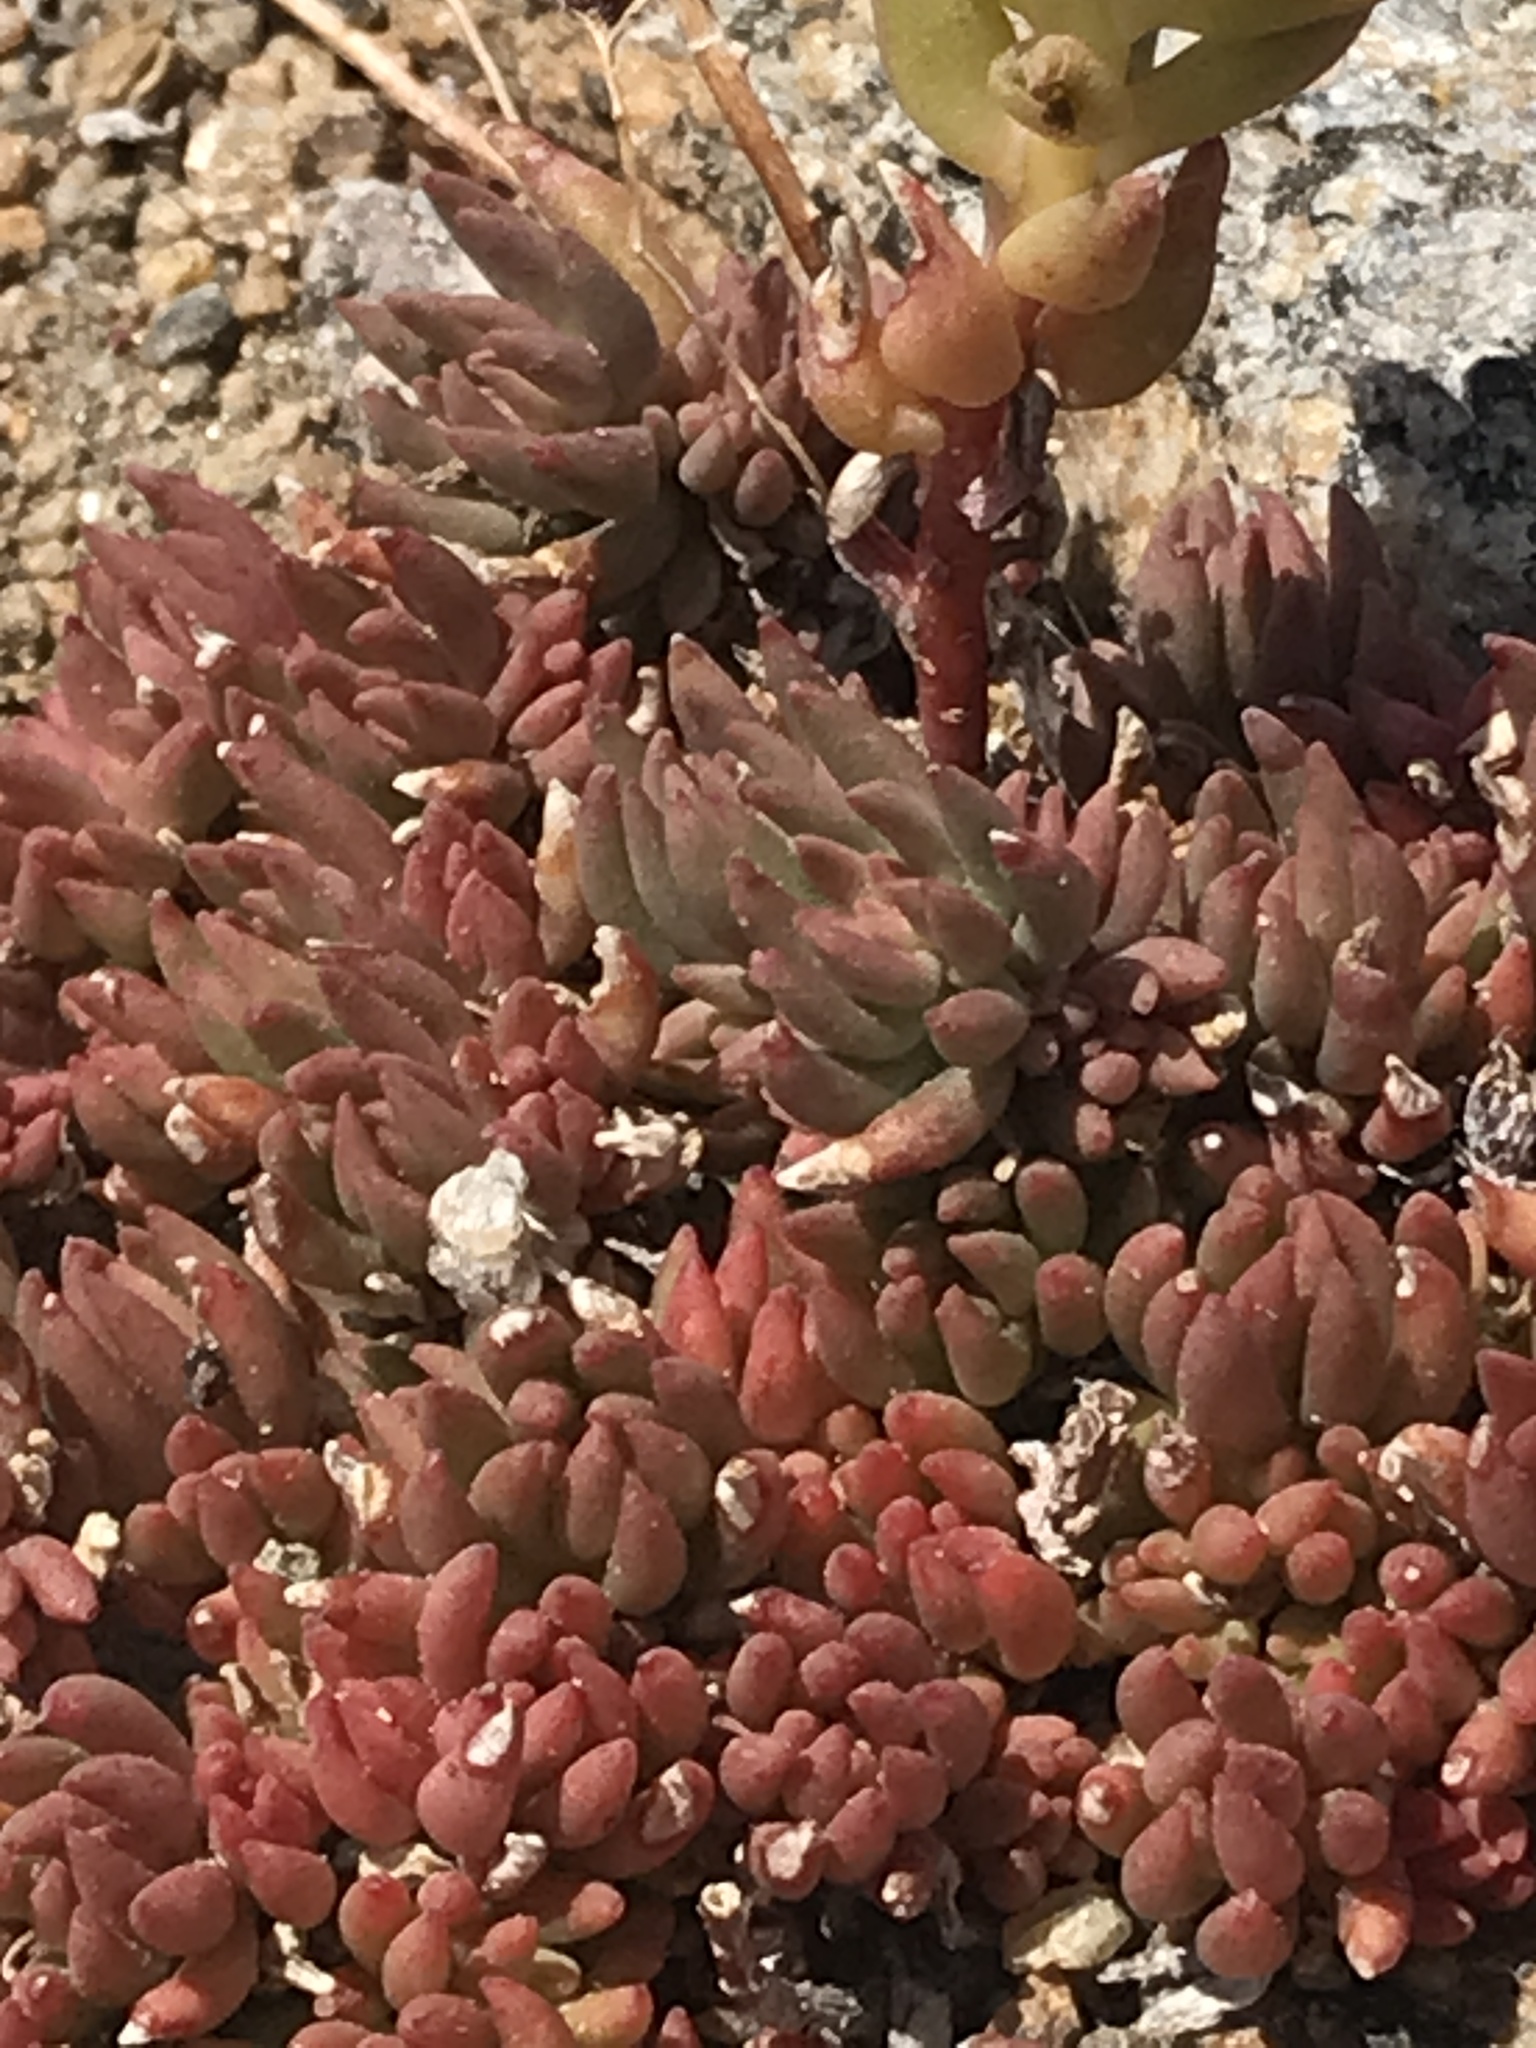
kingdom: Plantae
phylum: Tracheophyta
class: Magnoliopsida
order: Saxifragales
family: Crassulaceae
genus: Sedum
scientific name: Sedum lanceolatum
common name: Common stonecrop
